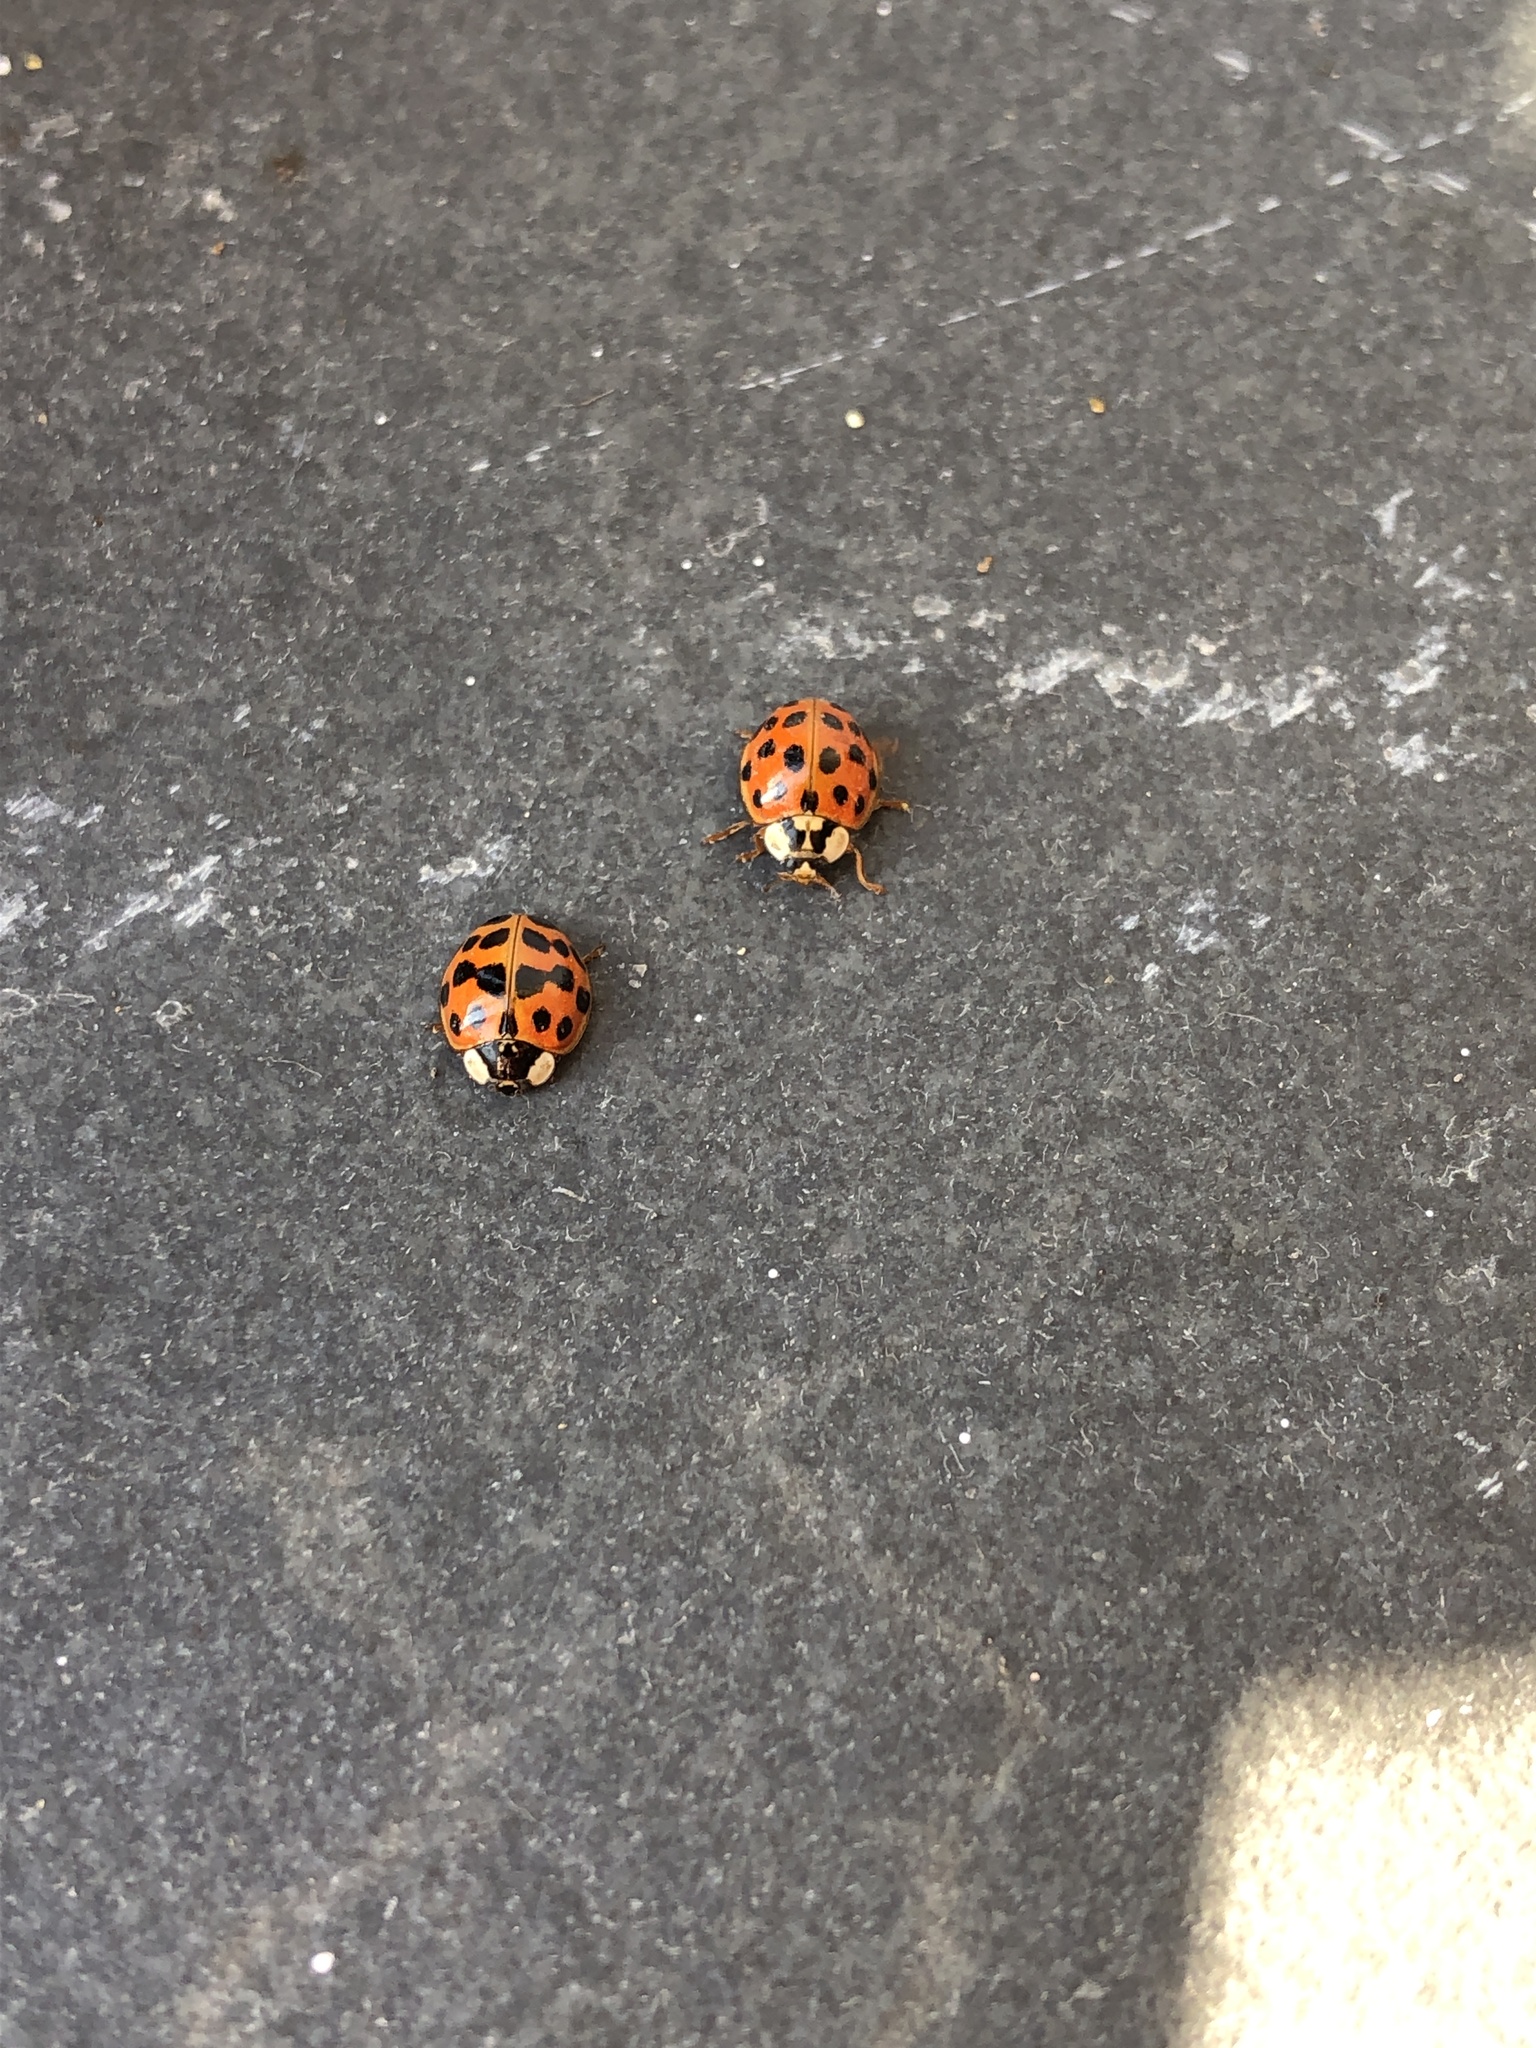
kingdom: Animalia
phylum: Arthropoda
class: Insecta
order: Coleoptera
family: Coccinellidae
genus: Harmonia
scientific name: Harmonia axyridis
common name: Harlequin ladybird
